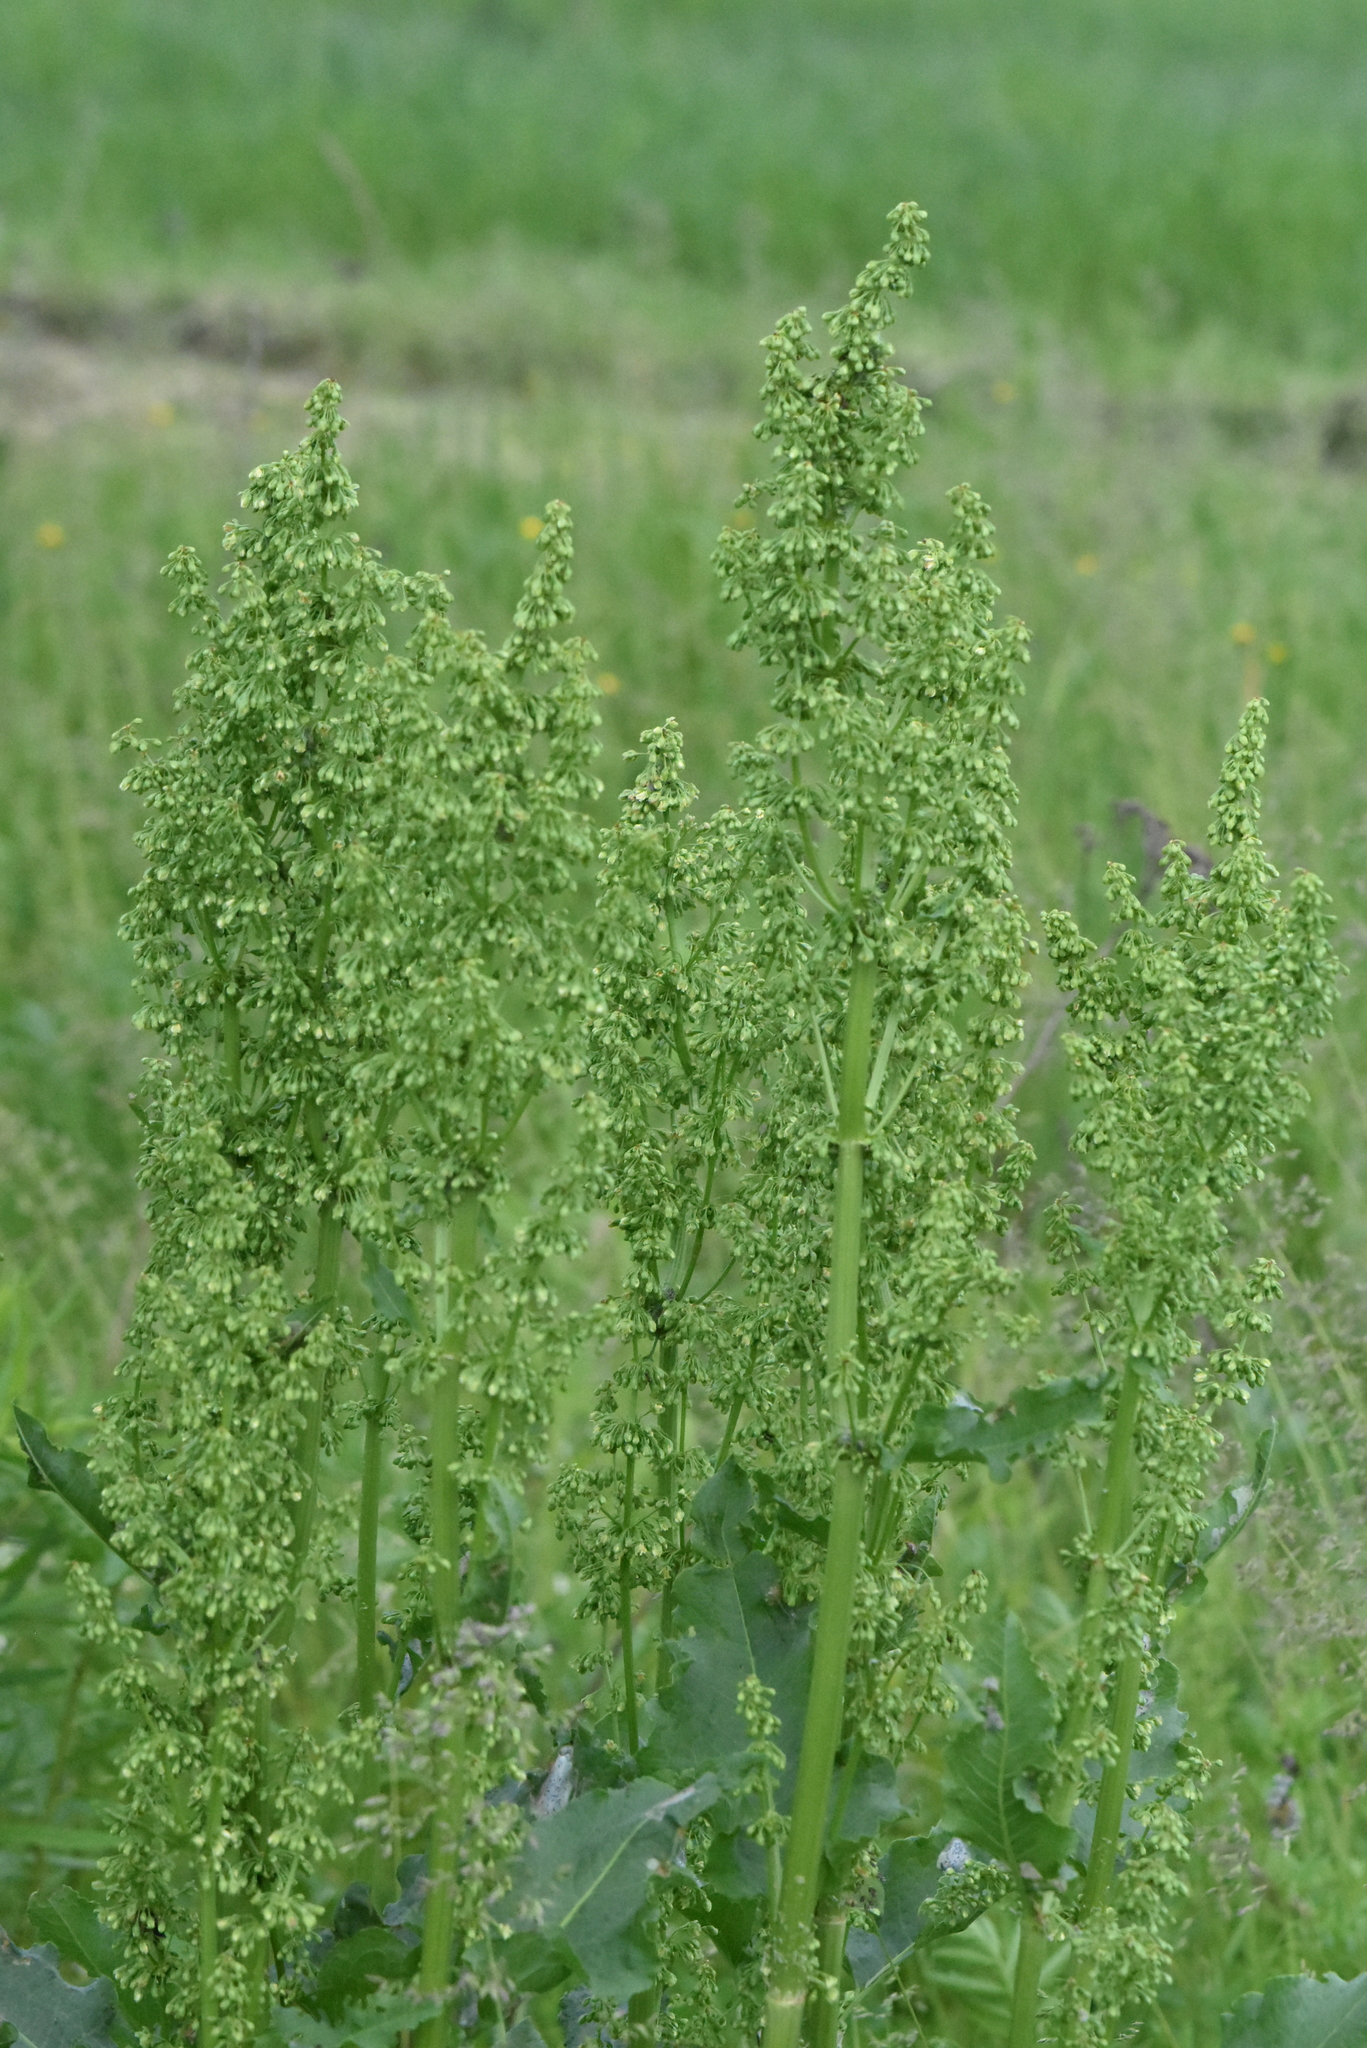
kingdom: Plantae
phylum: Tracheophyta
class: Magnoliopsida
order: Caryophyllales
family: Polygonaceae
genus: Rumex
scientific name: Rumex confertus
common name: Russian dock
